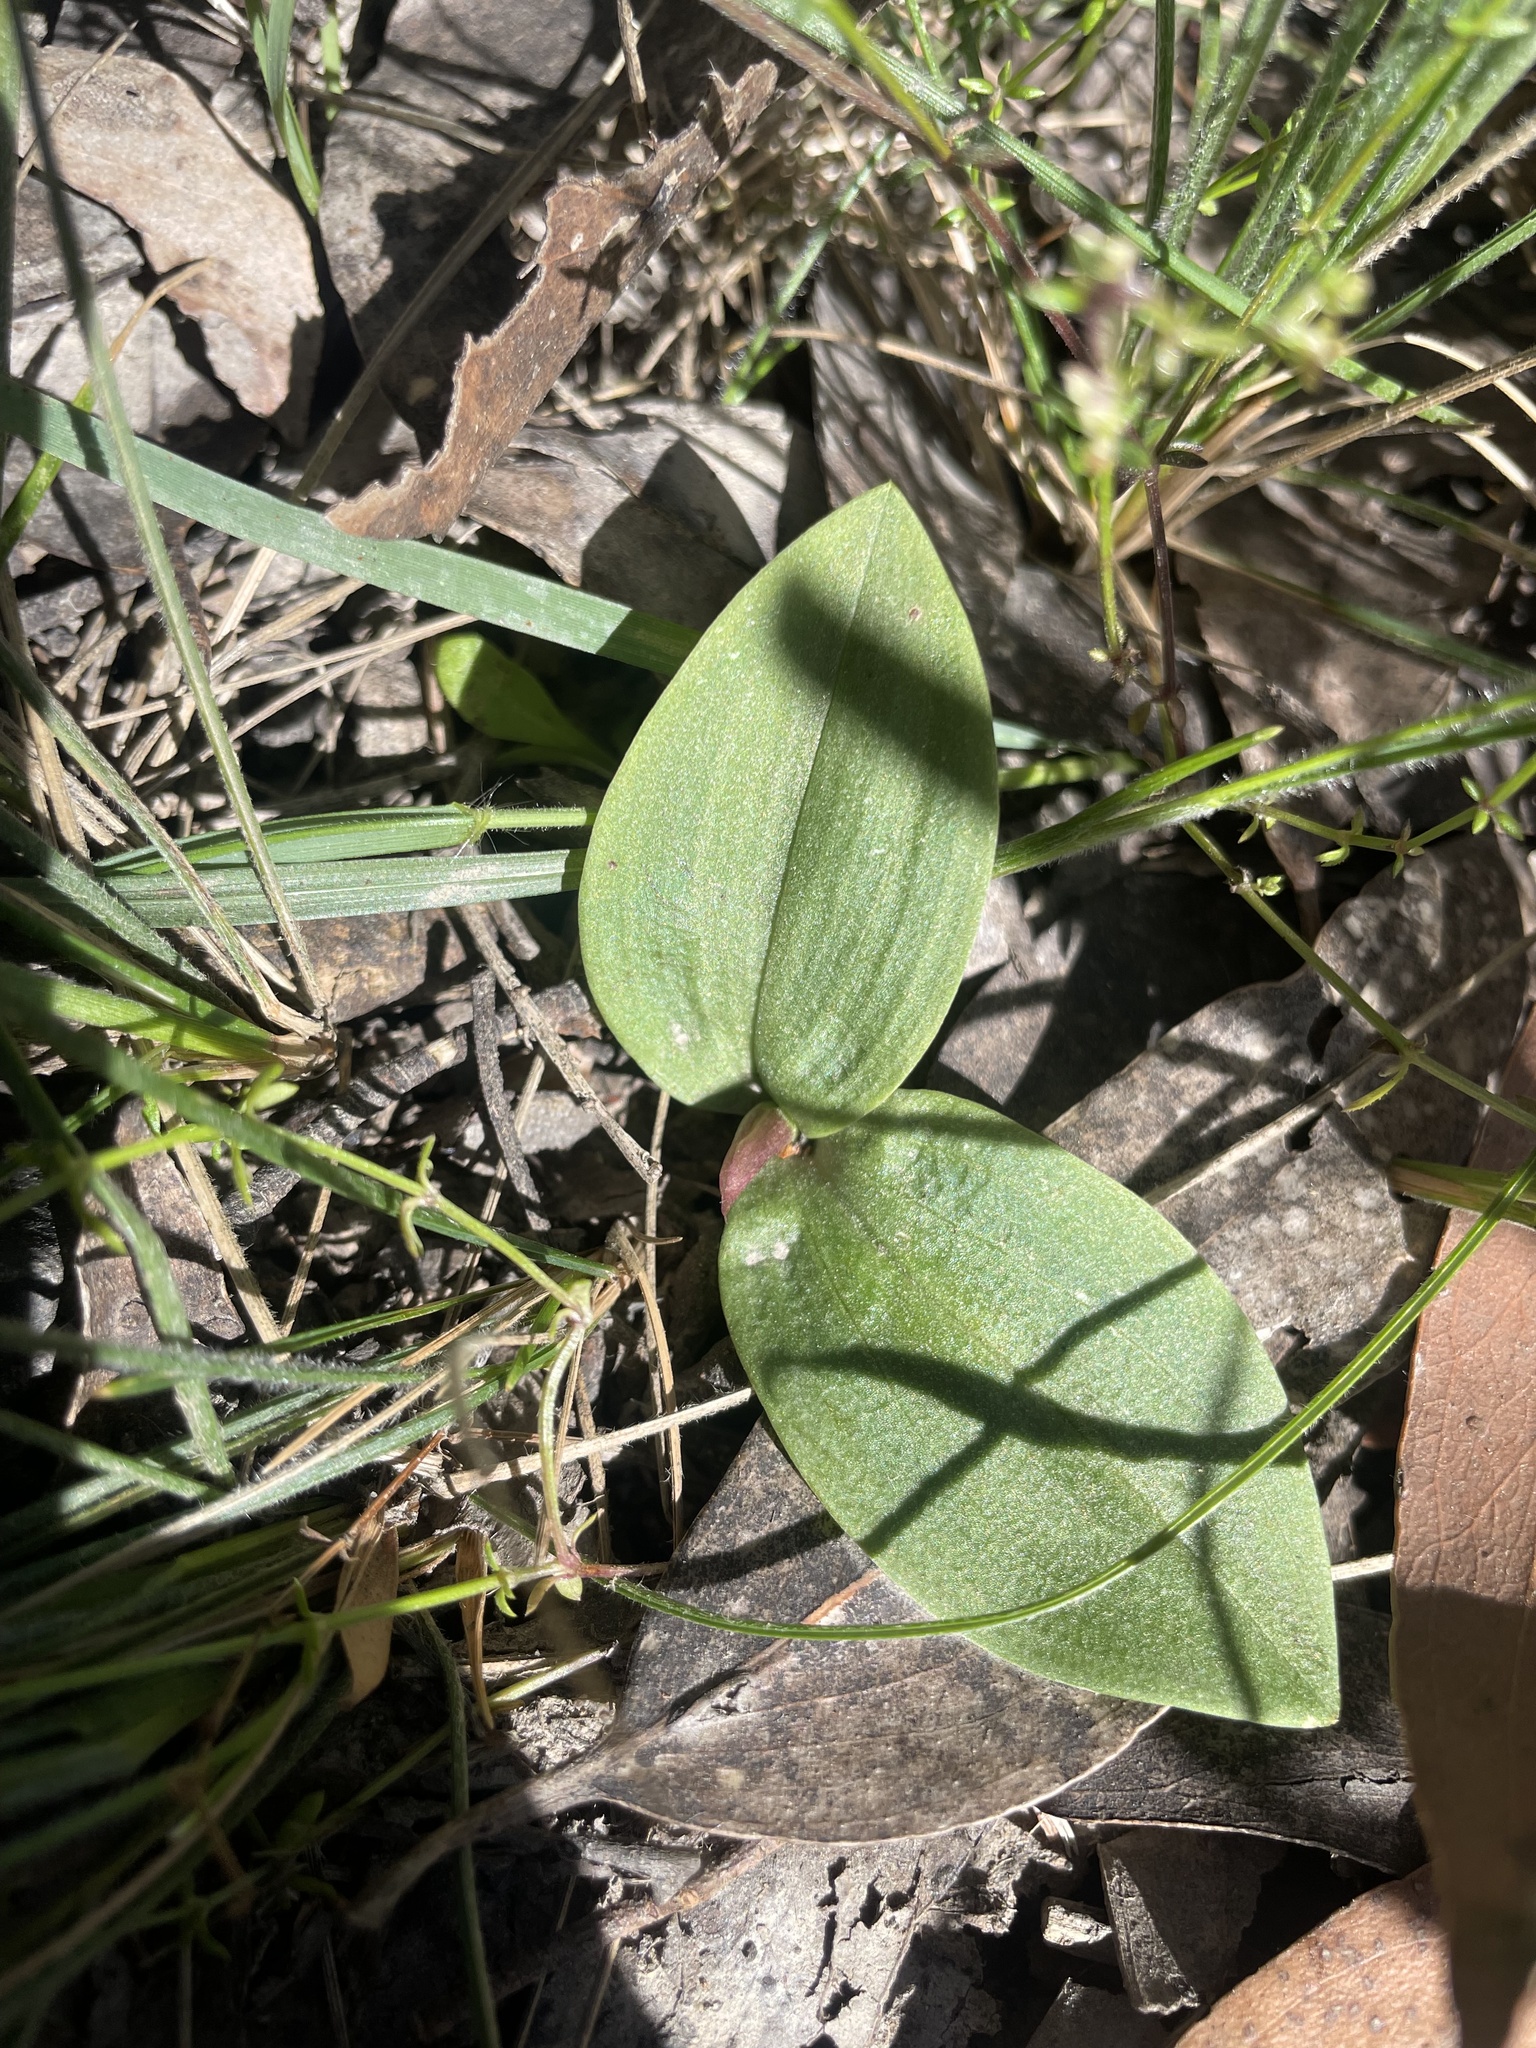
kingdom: Plantae
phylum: Tracheophyta
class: Liliopsida
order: Asparagales
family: Orchidaceae
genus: Chiloglottis
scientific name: Chiloglottis valida
